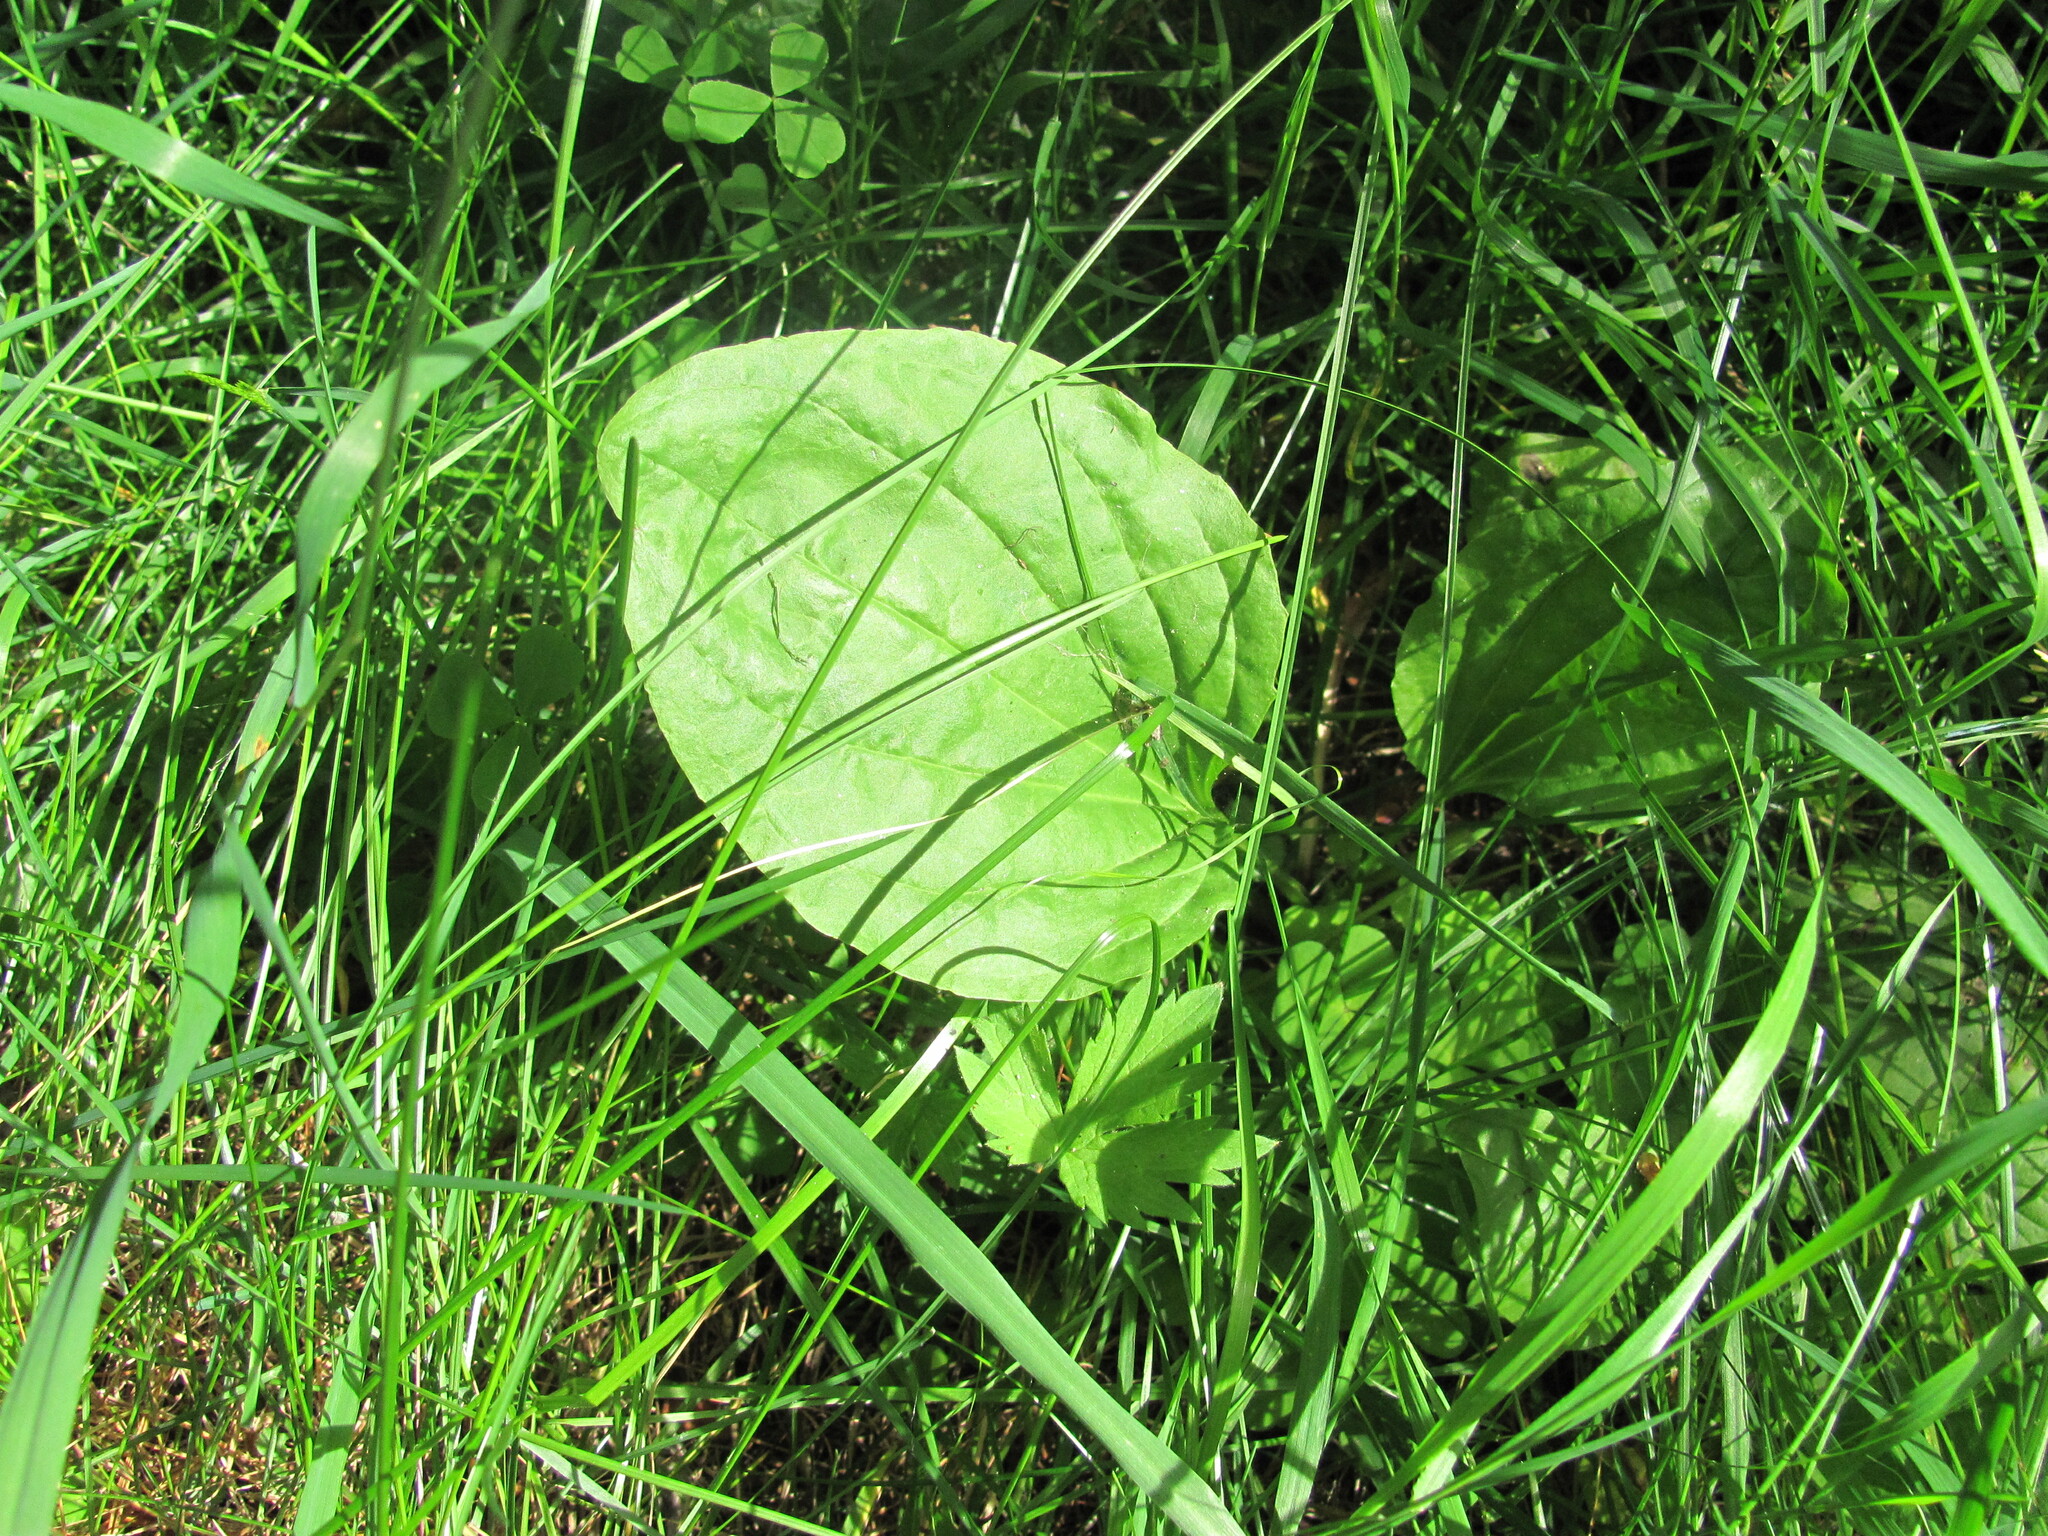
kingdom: Plantae
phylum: Tracheophyta
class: Magnoliopsida
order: Lamiales
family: Plantaginaceae
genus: Plantago
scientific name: Plantago major
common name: Common plantain
